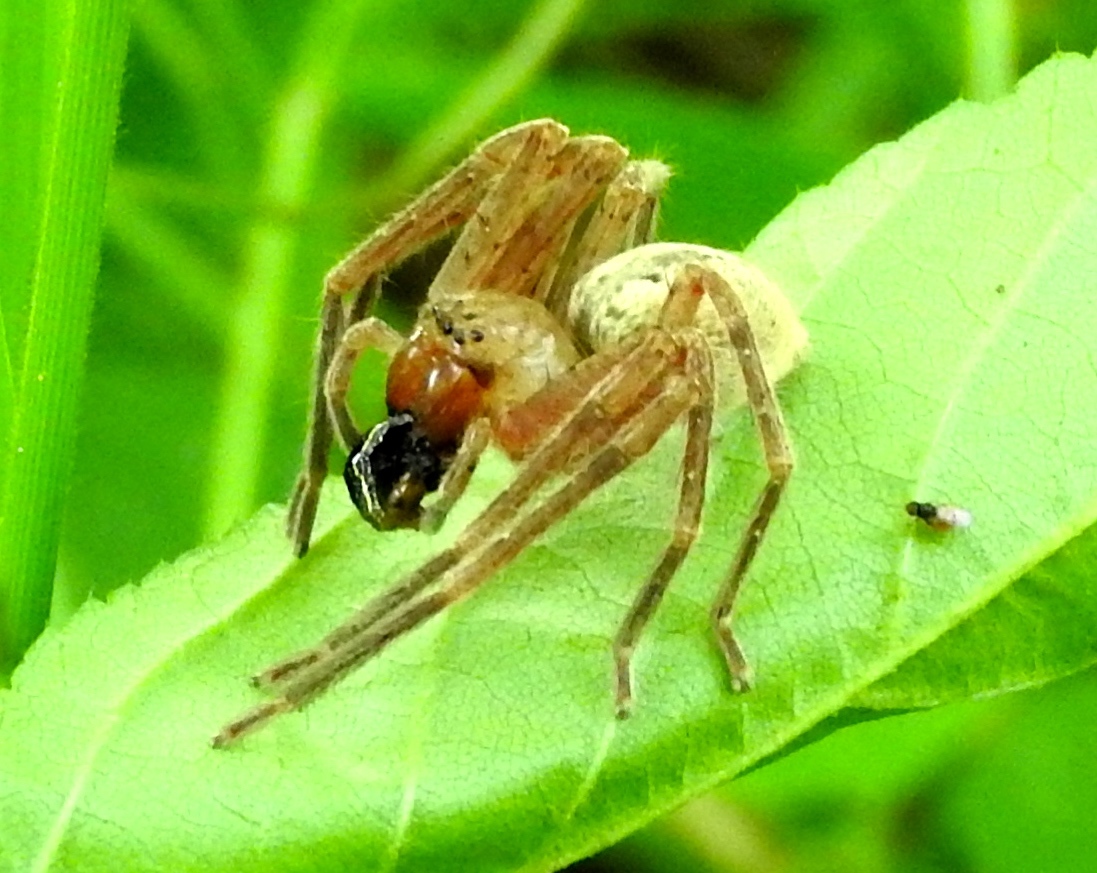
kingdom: Animalia
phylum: Arthropoda
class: Arachnida
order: Araneae
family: Sparassidae
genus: Curicaberis
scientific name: Curicaberis culiacan
